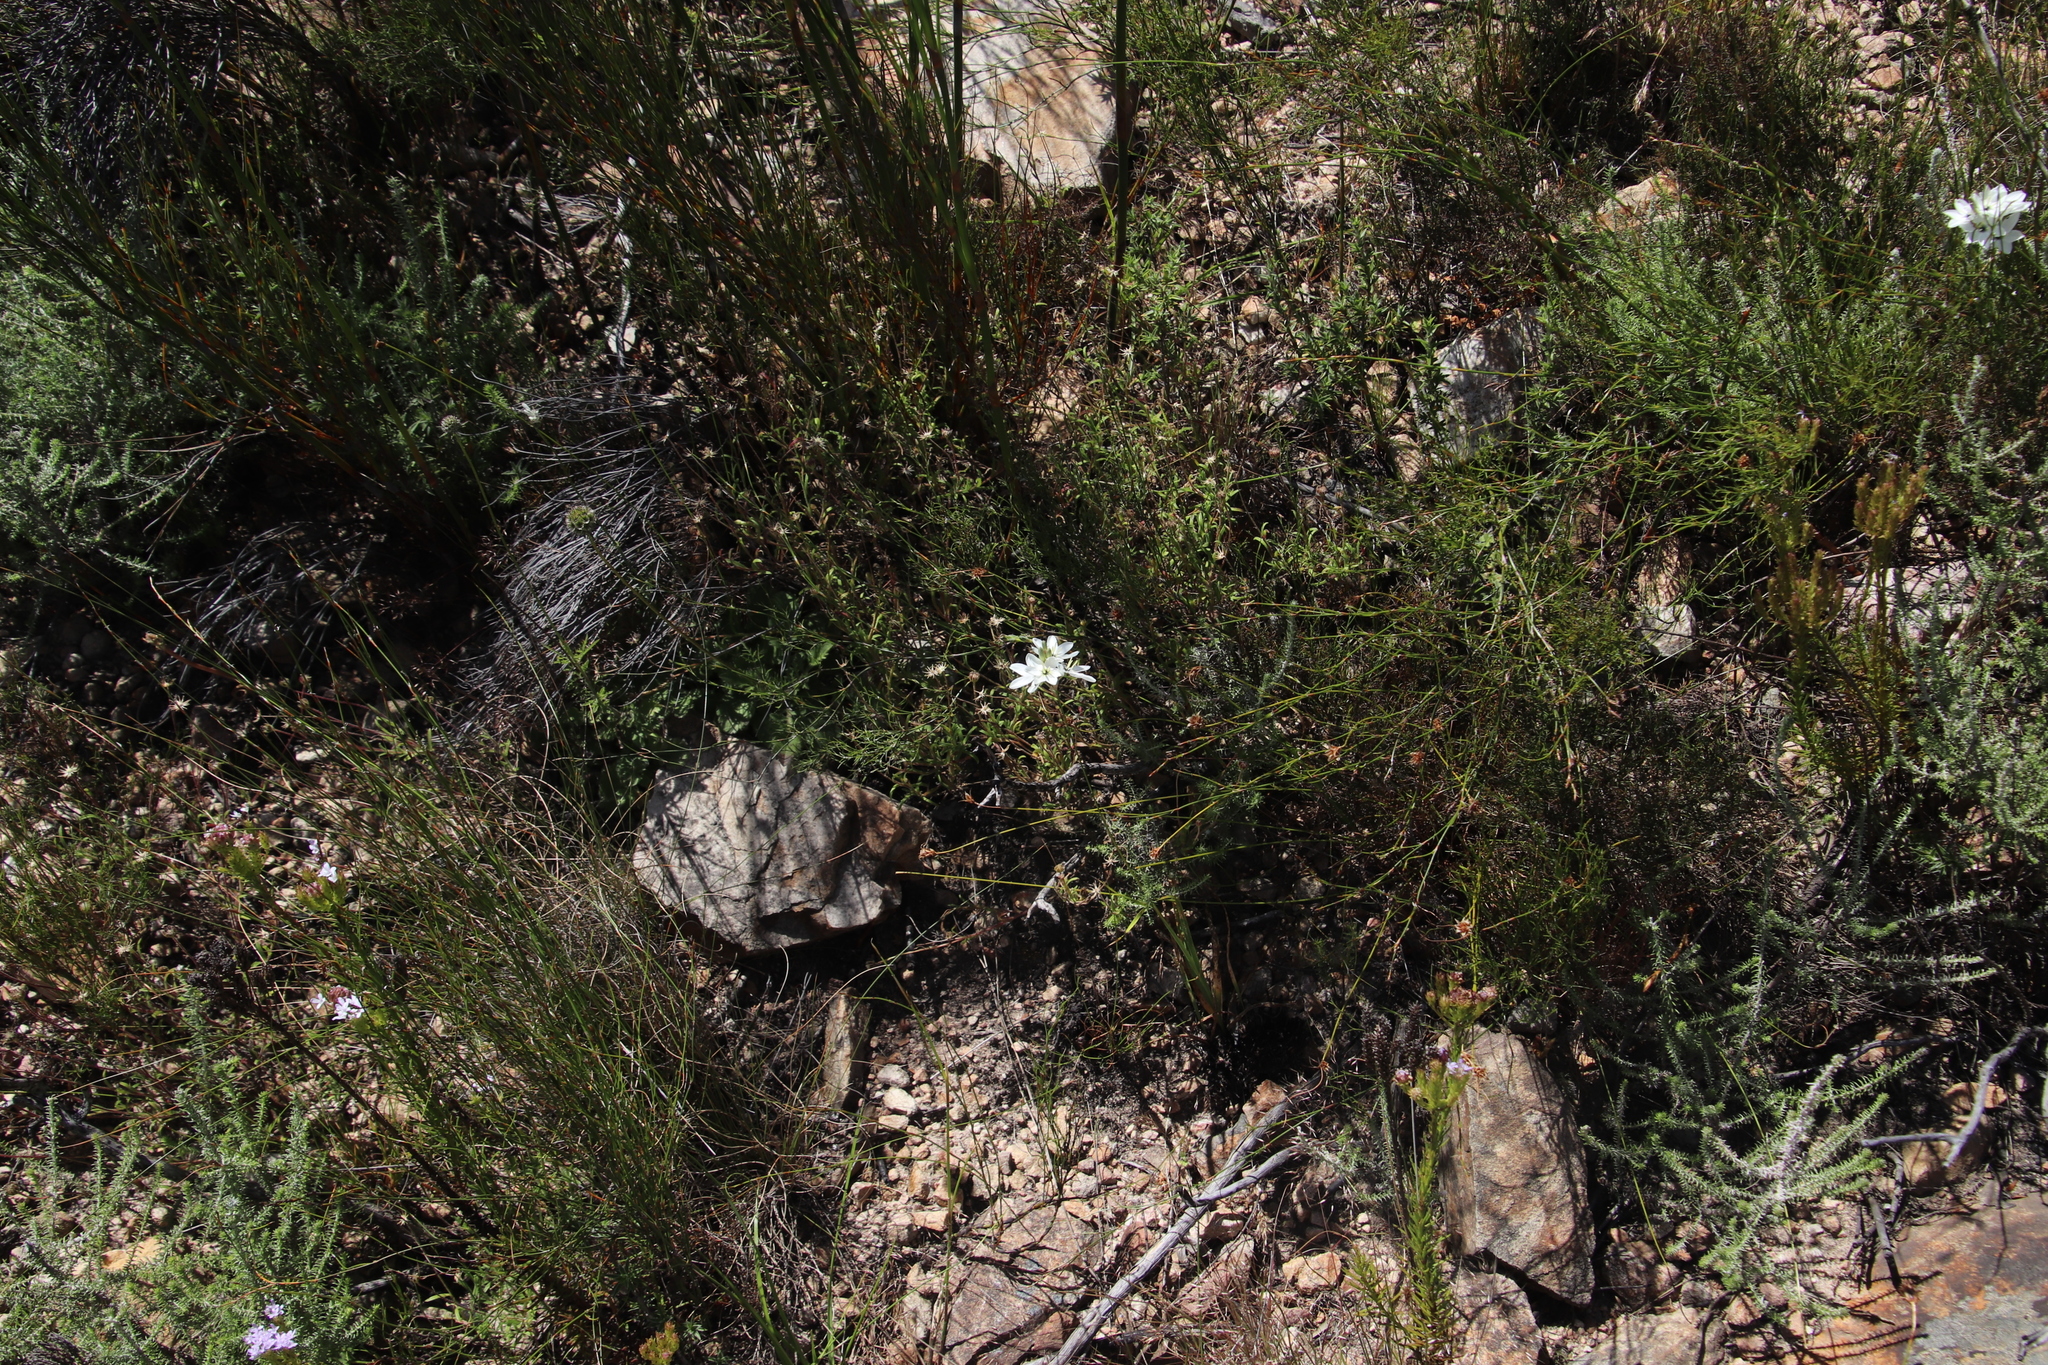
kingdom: Plantae
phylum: Tracheophyta
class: Liliopsida
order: Asparagales
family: Iridaceae
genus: Ixia
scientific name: Ixia polystachya
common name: White-and-yellow-flower cornlily
